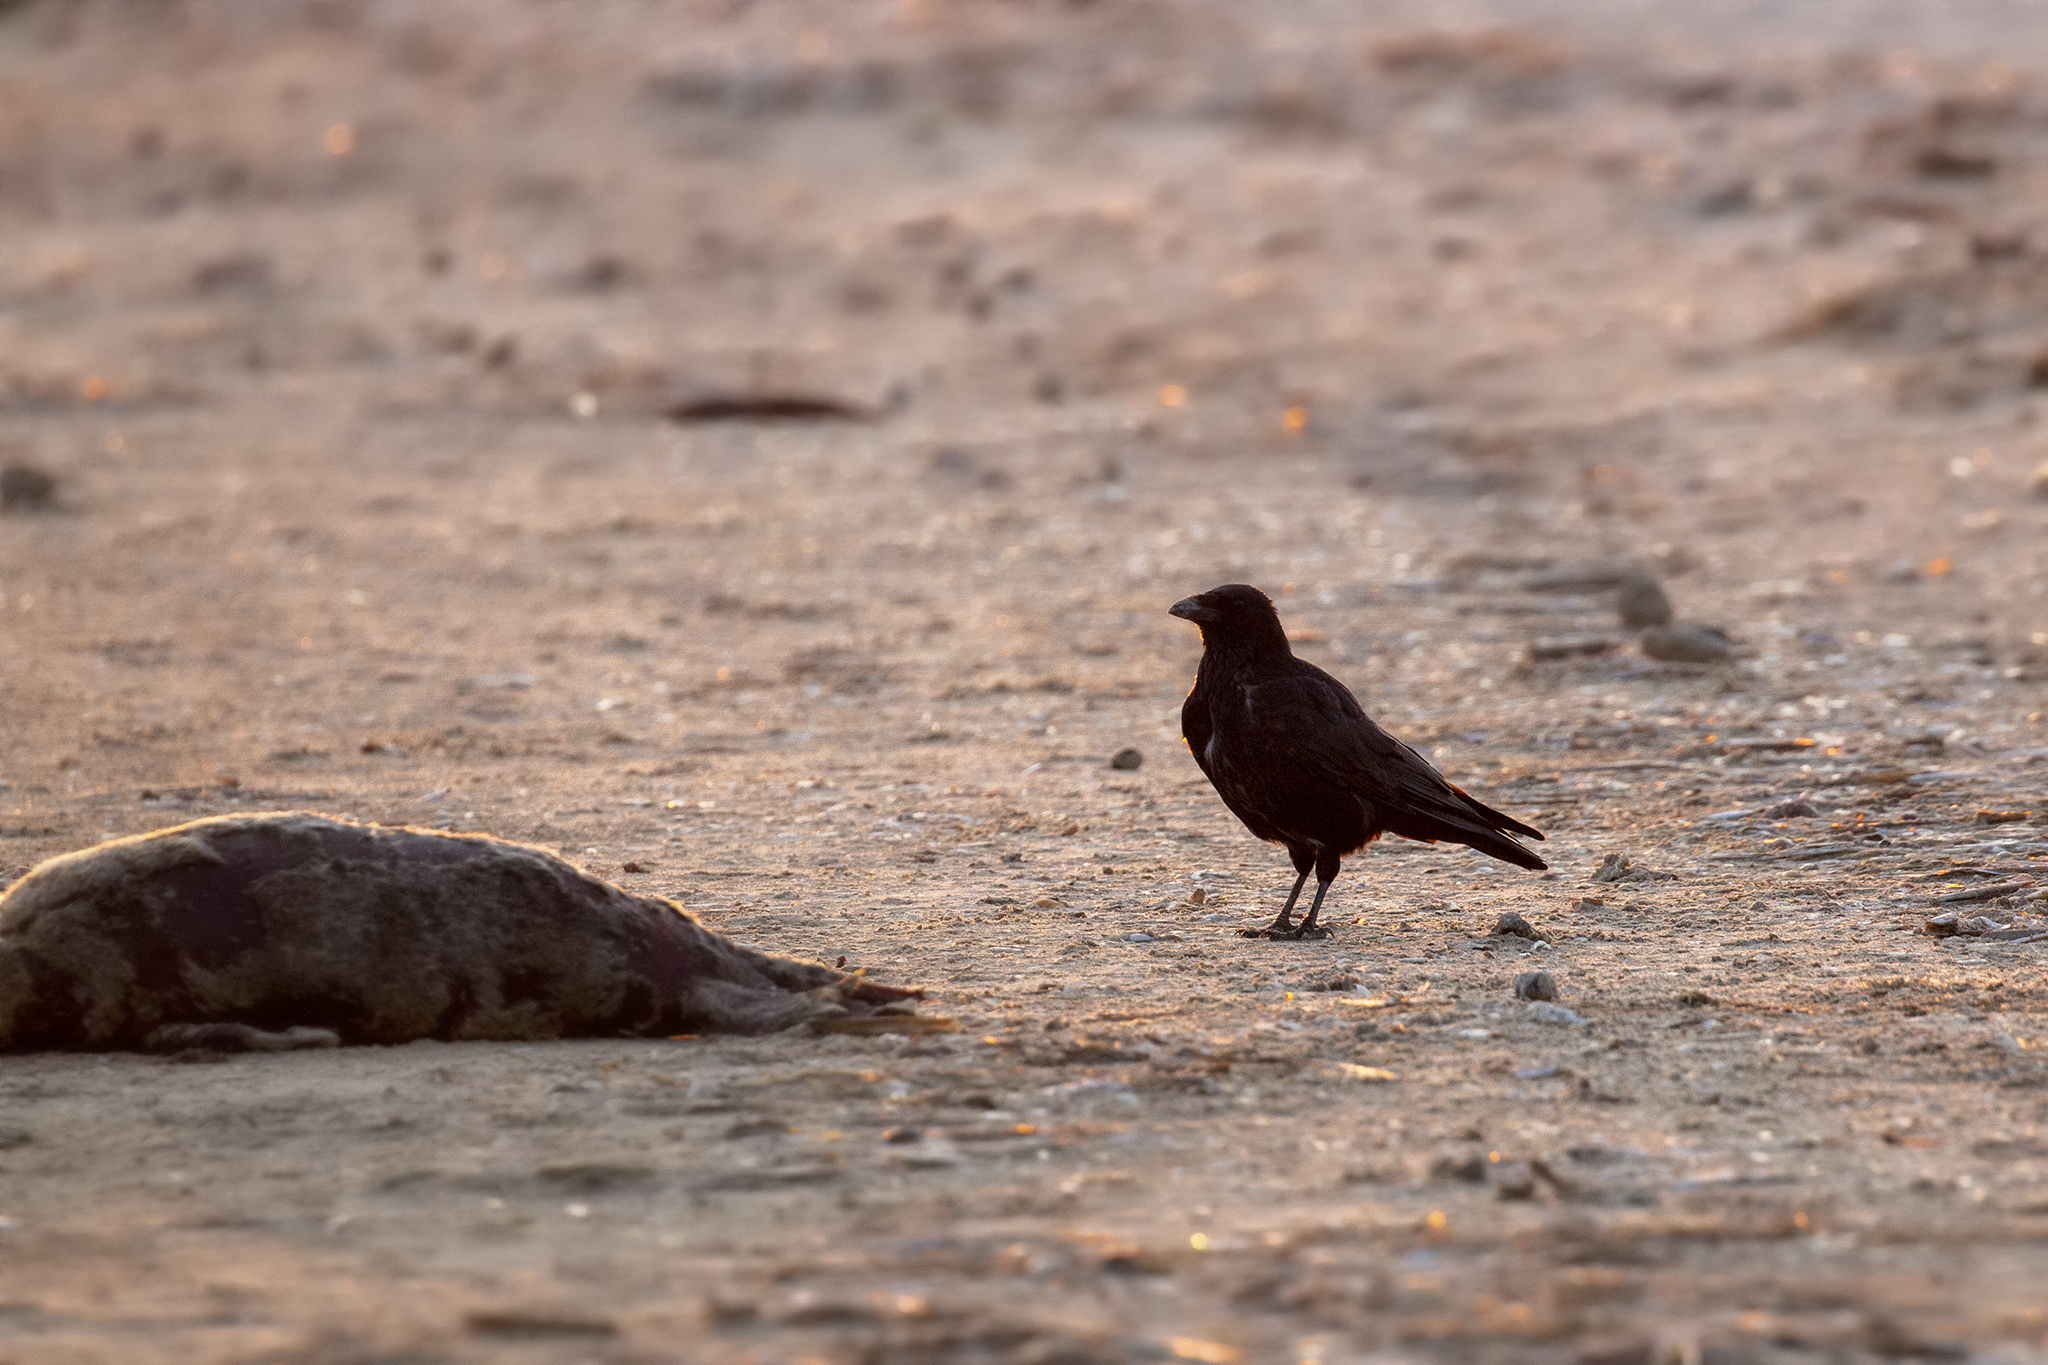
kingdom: Animalia
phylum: Chordata
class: Aves
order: Passeriformes
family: Corvidae
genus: Corvus
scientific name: Corvus corone
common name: Carrion crow
